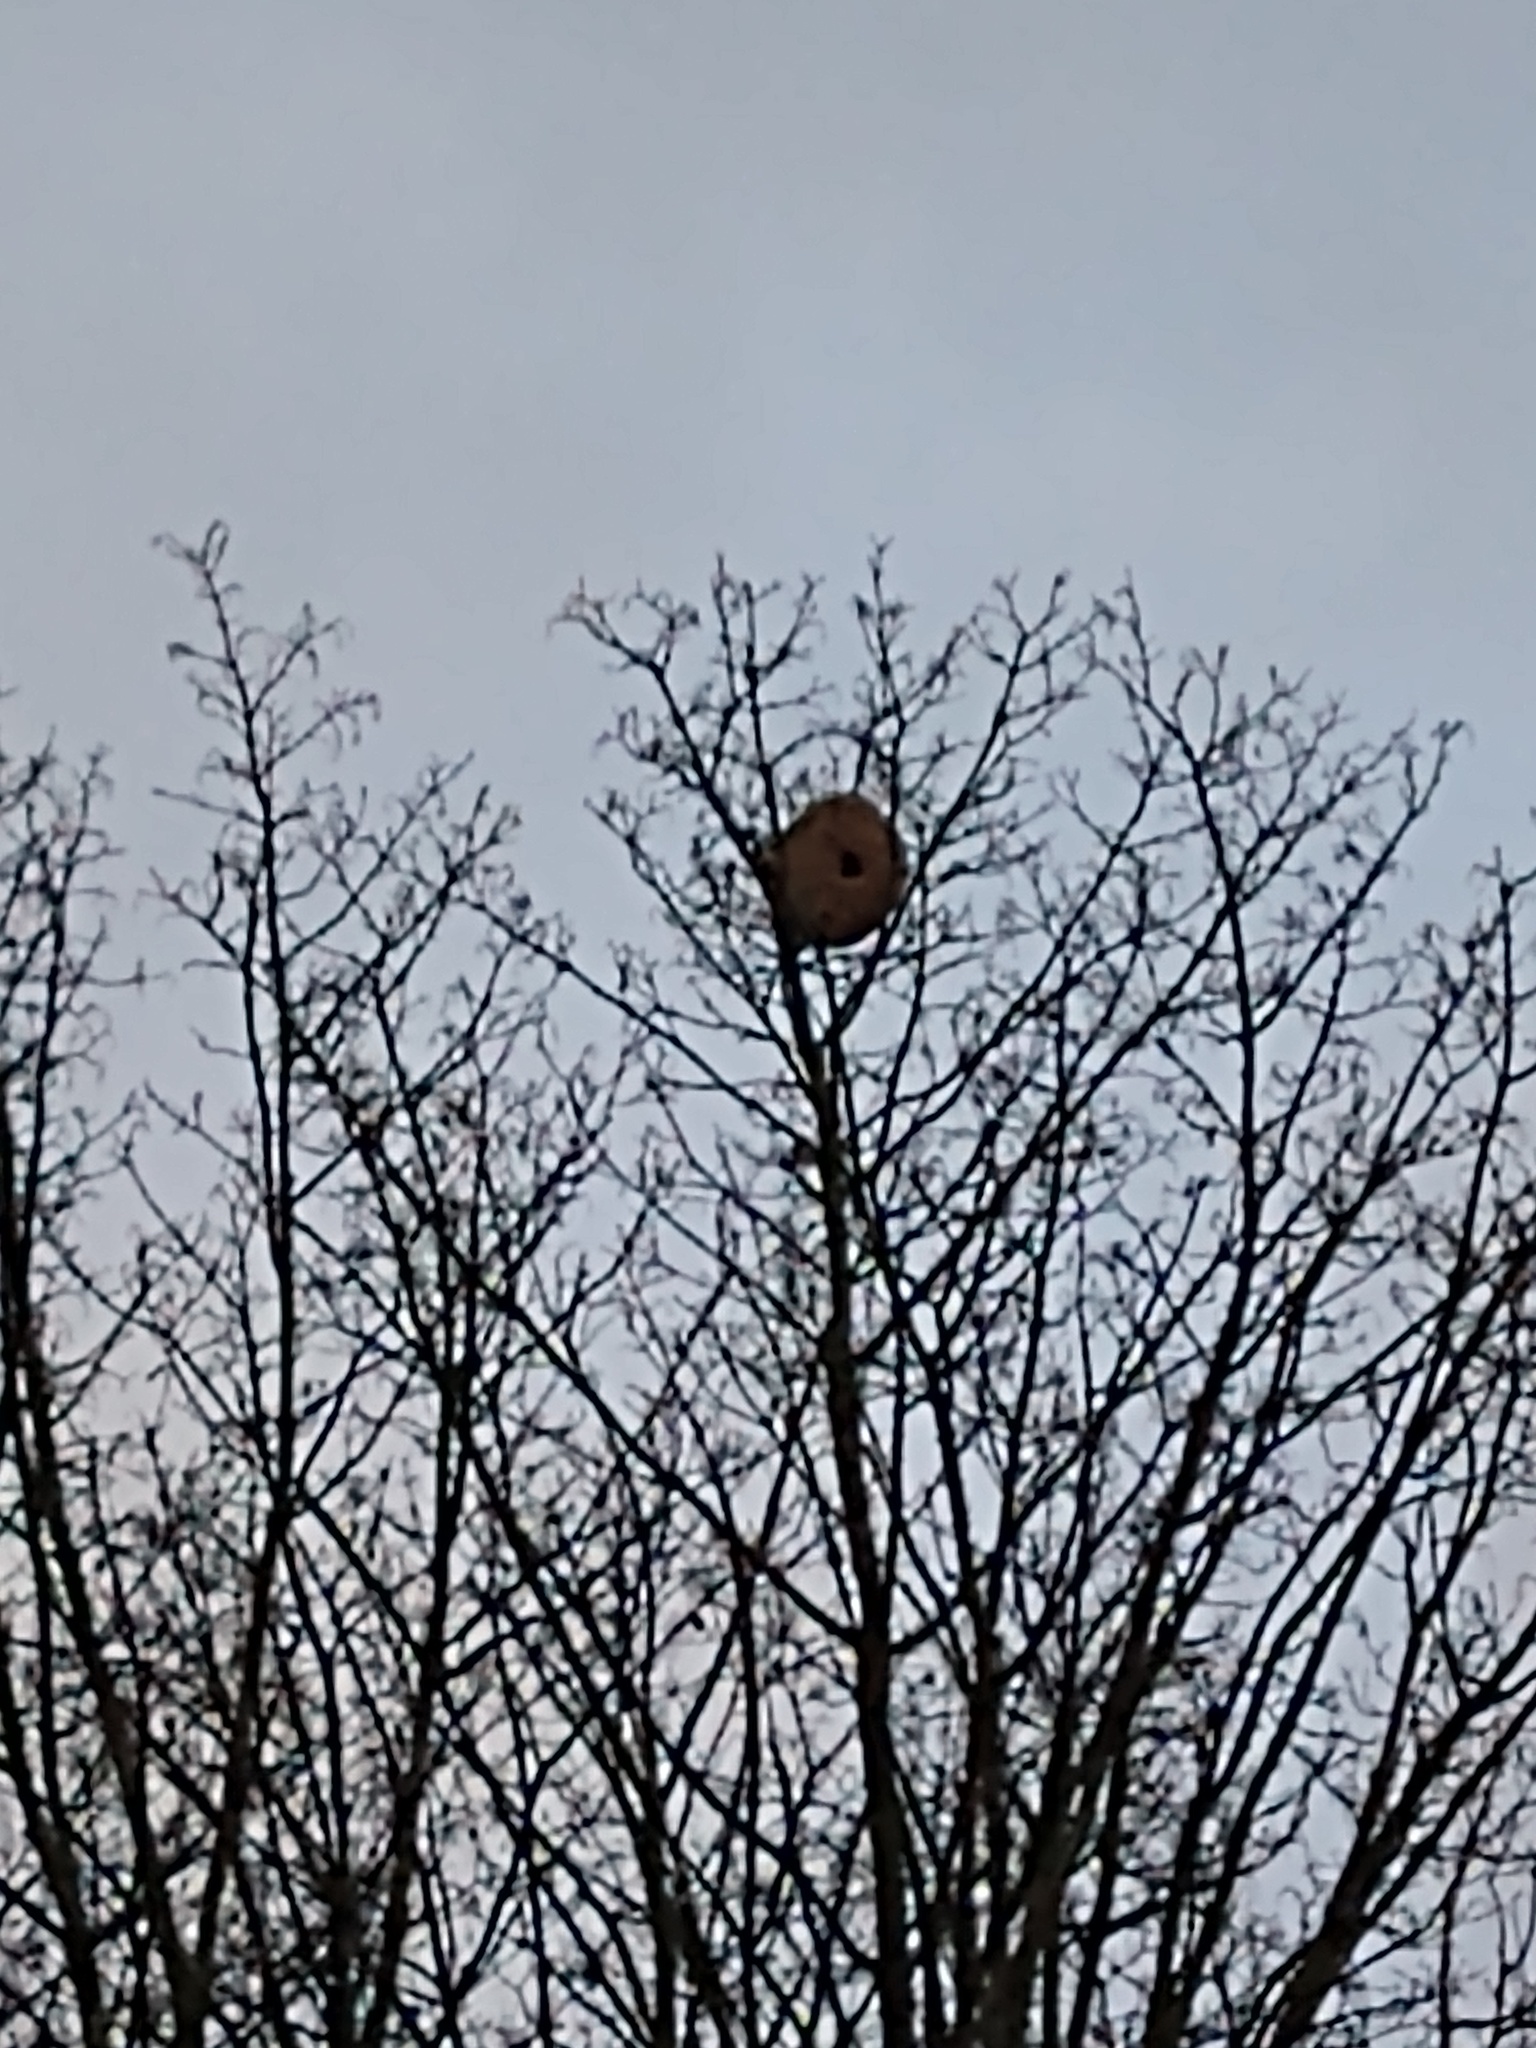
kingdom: Animalia
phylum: Arthropoda
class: Insecta
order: Hymenoptera
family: Vespidae
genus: Vespa
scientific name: Vespa velutina
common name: Asian hornet
